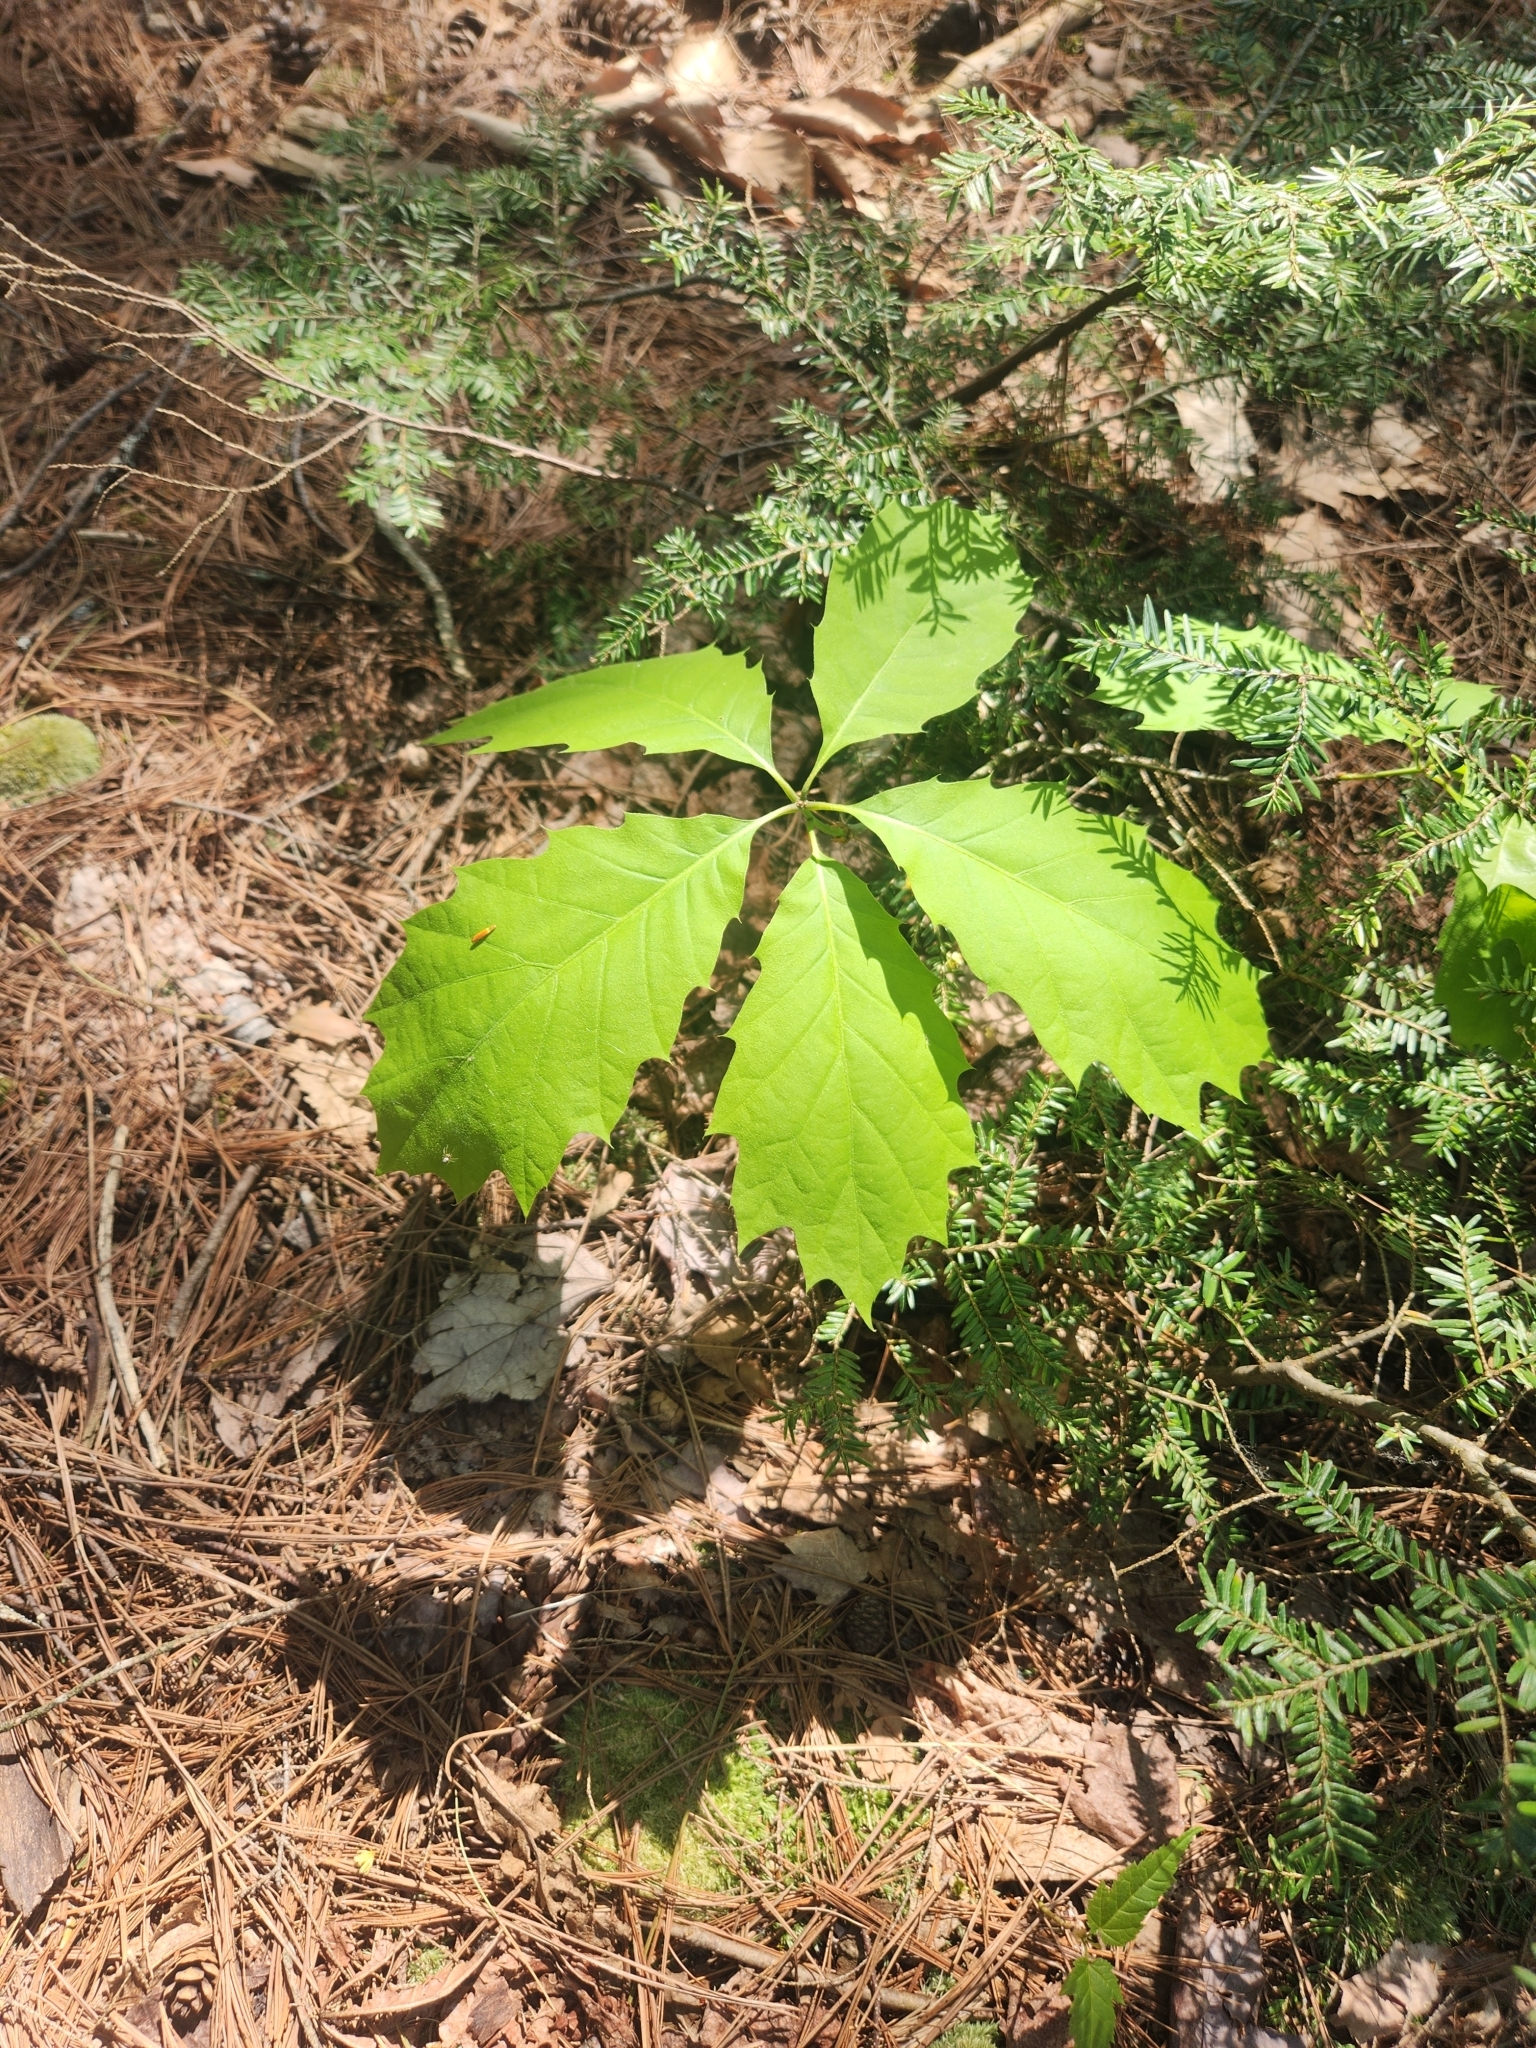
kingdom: Plantae
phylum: Tracheophyta
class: Magnoliopsida
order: Fagales
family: Fagaceae
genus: Quercus
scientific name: Quercus rubra
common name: Red oak
